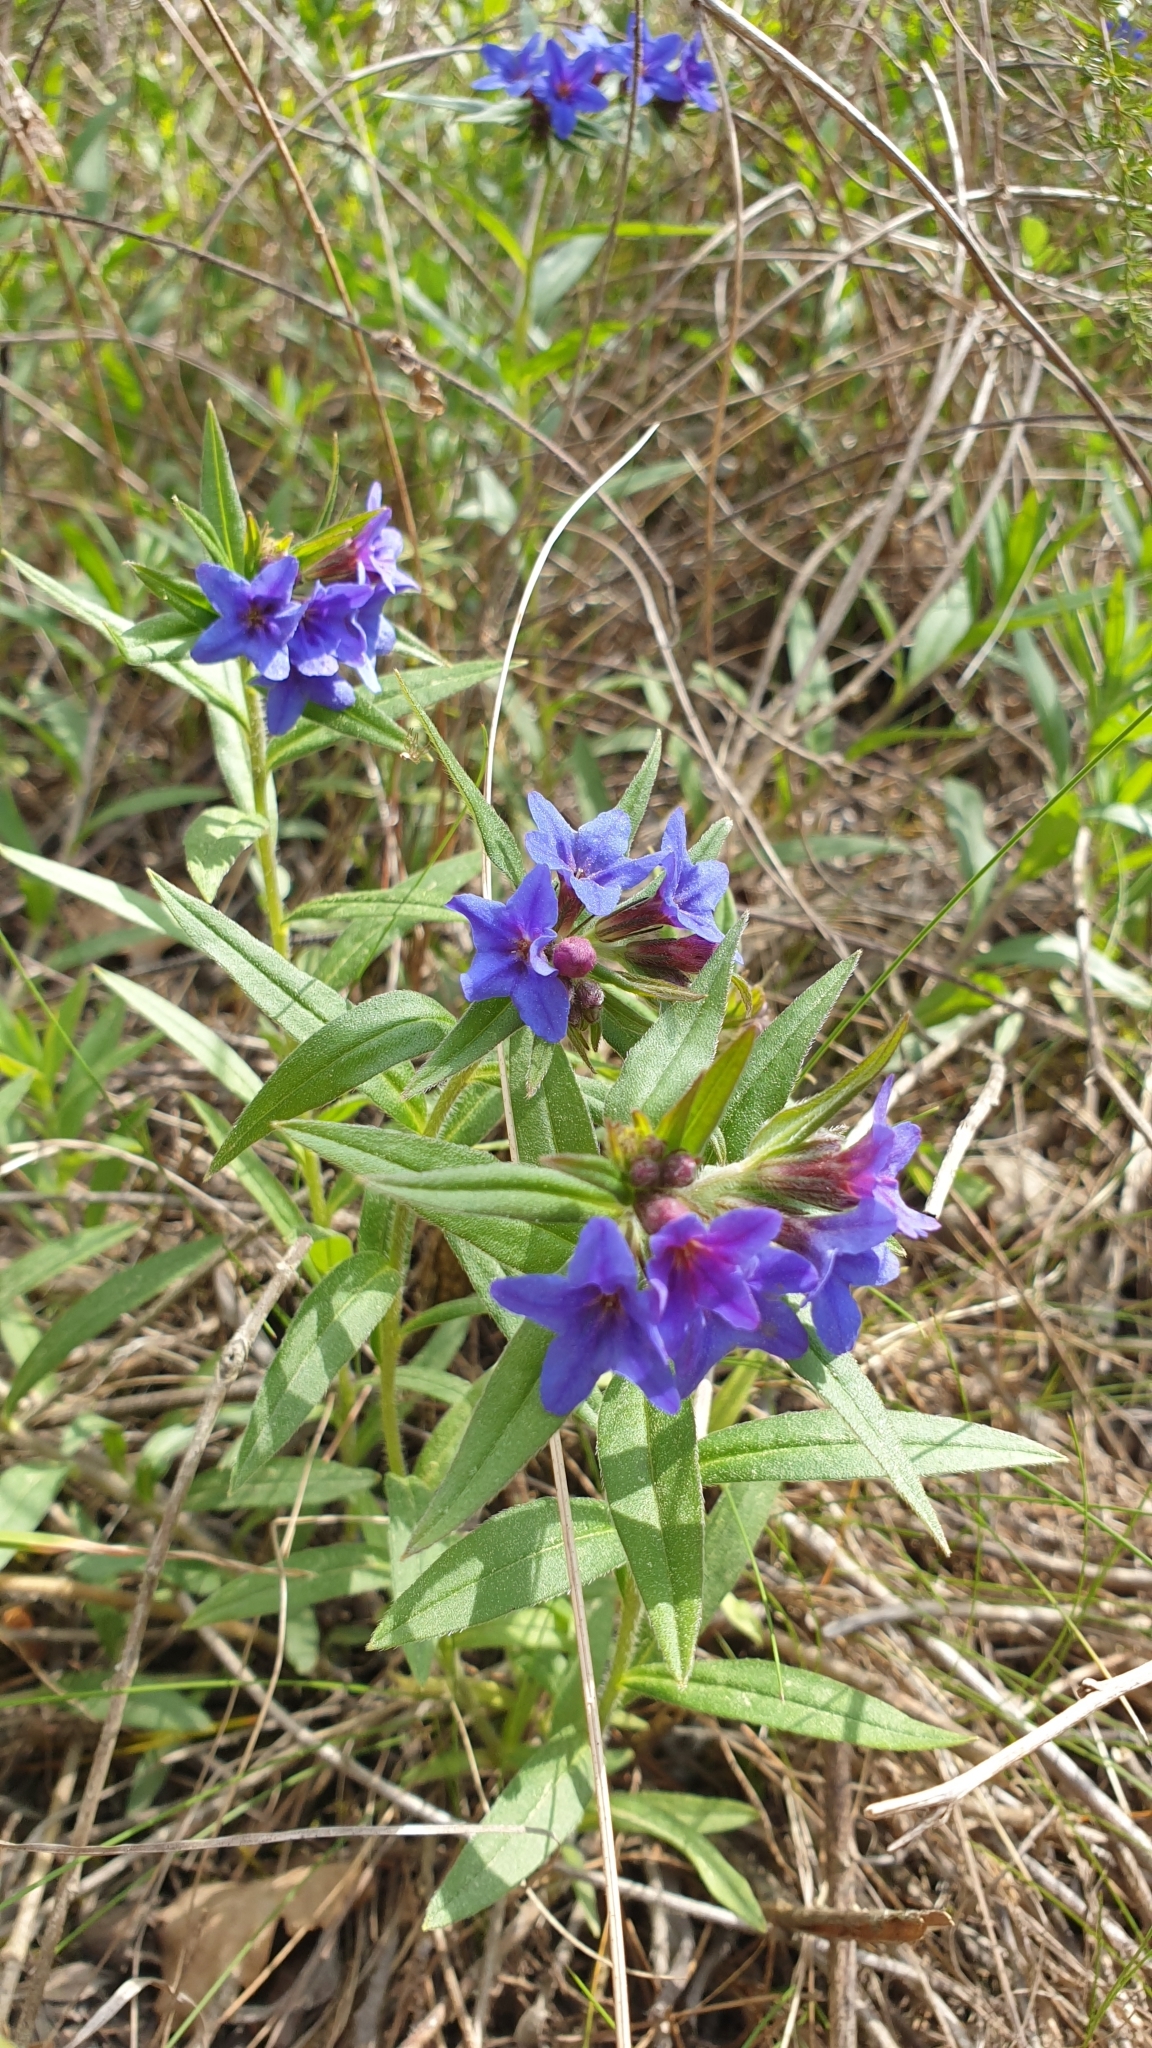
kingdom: Plantae
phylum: Tracheophyta
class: Magnoliopsida
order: Boraginales
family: Boraginaceae
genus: Aegonychon
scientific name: Aegonychon purpurocaeruleum
